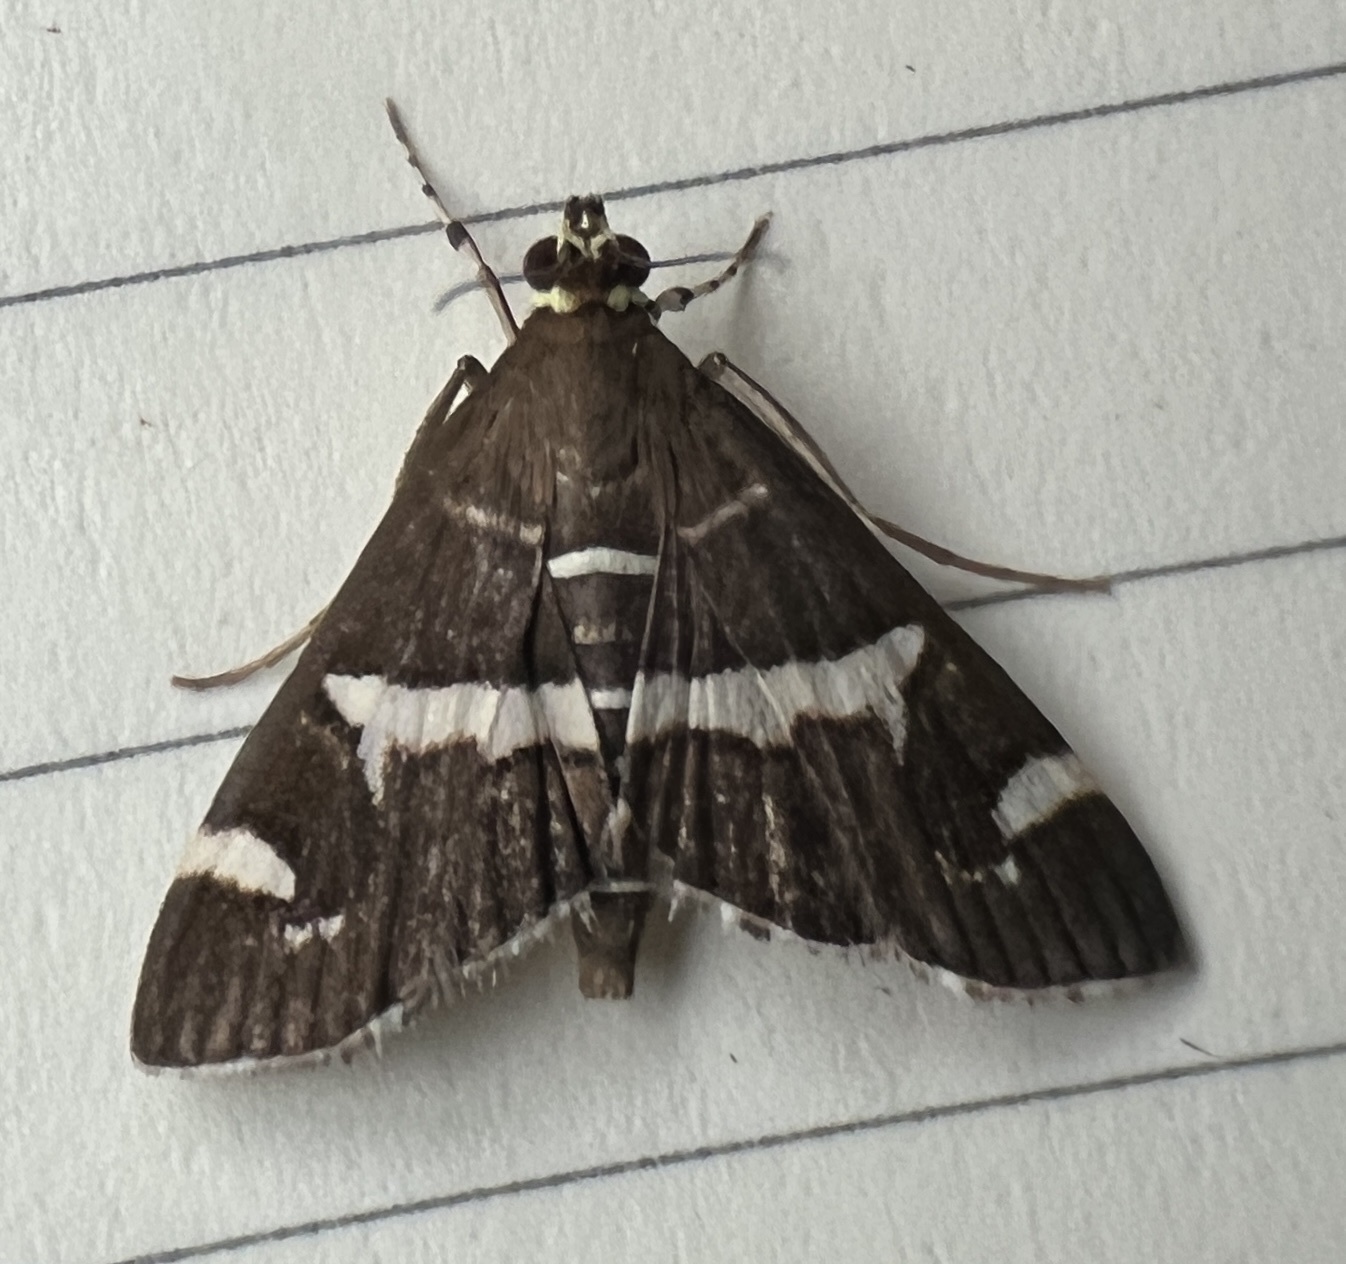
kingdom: Animalia
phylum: Arthropoda
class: Insecta
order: Lepidoptera
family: Crambidae
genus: Spoladea
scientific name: Spoladea recurvalis
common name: Beet webworm moth
